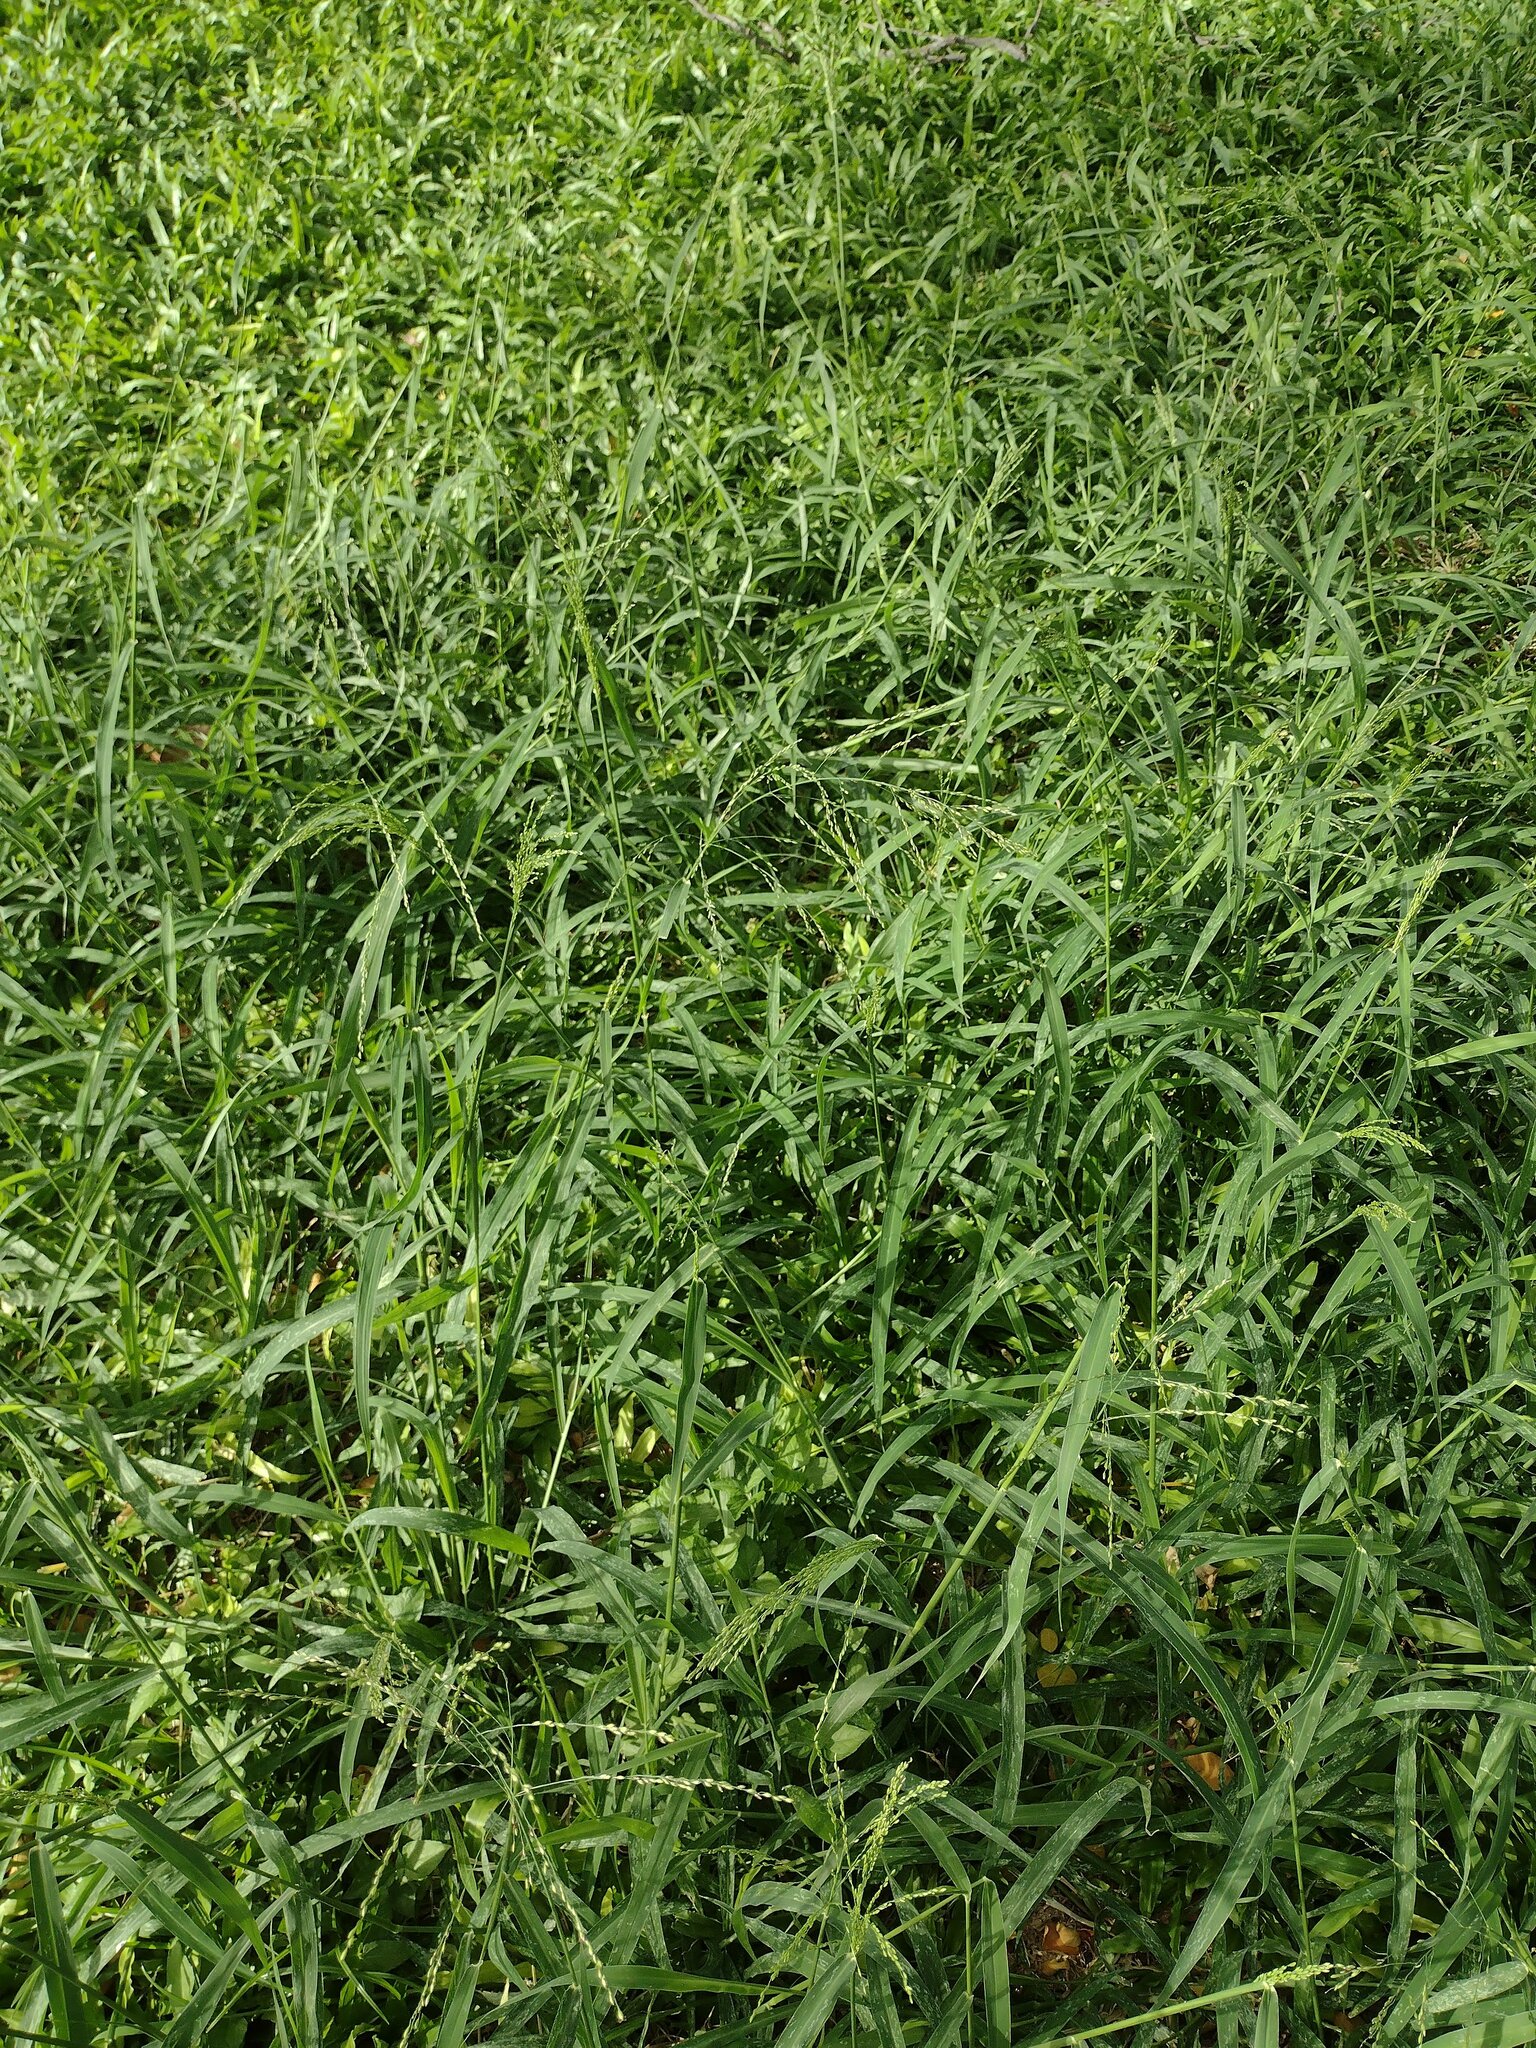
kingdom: Plantae
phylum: Tracheophyta
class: Liliopsida
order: Poales
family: Poaceae
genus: Megathyrsus
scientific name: Megathyrsus maximus
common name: Guineagrass
